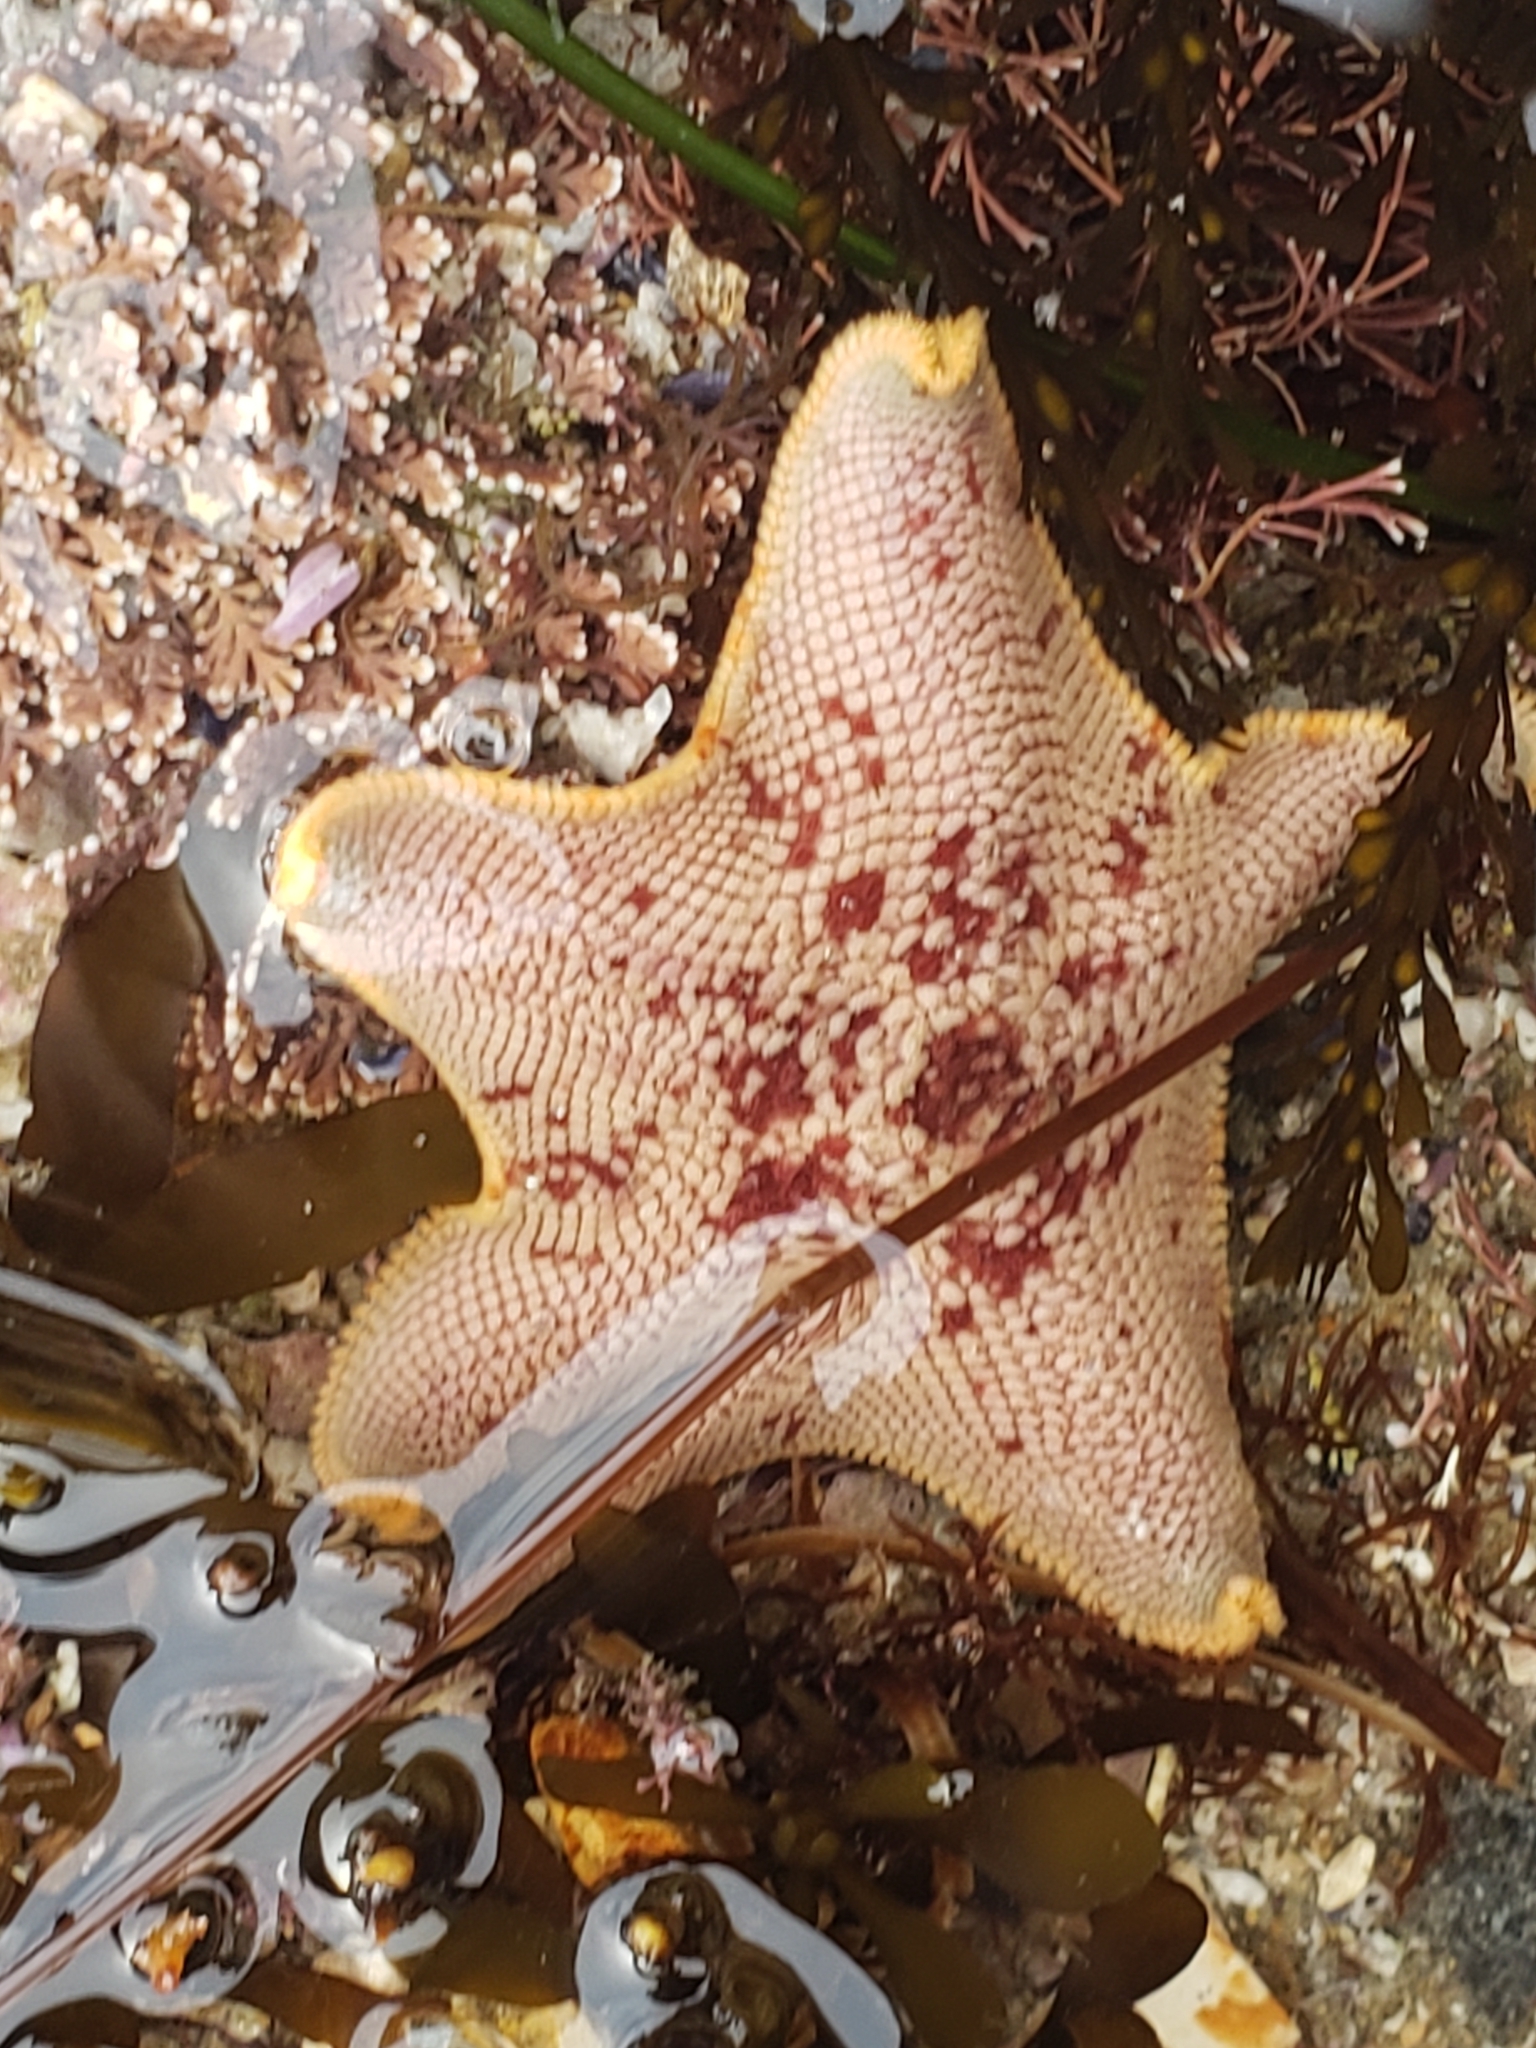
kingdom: Animalia
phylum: Echinodermata
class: Asteroidea
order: Valvatida
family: Asterinidae
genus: Patiria
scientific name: Patiria miniata
